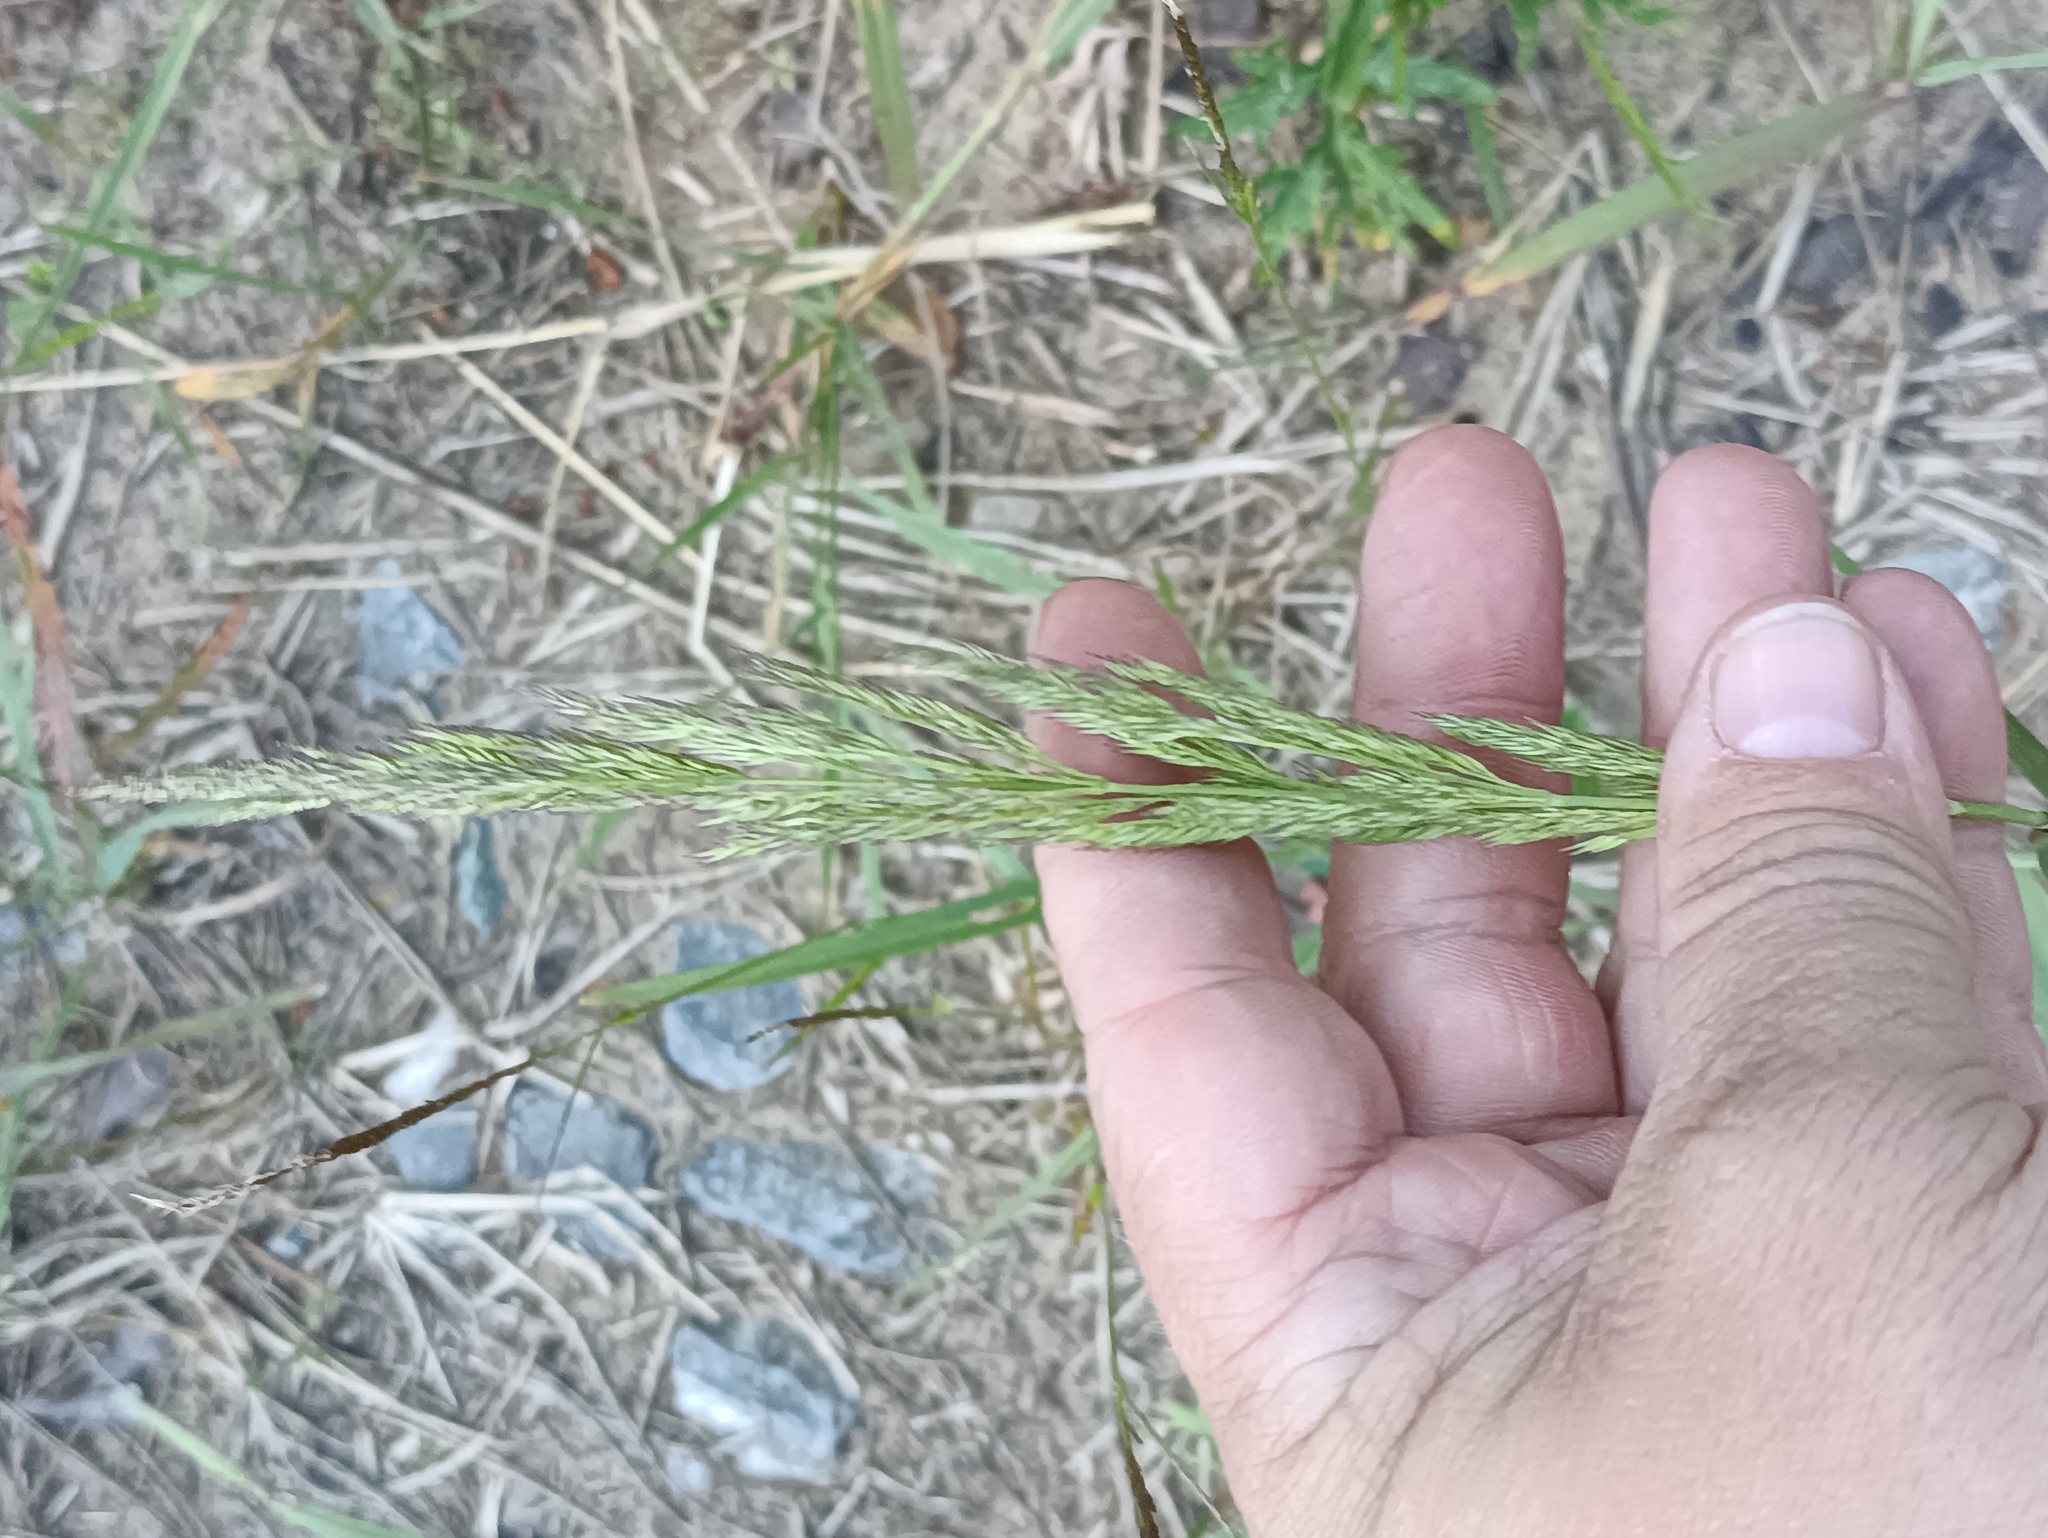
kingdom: Plantae
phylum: Tracheophyta
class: Liliopsida
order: Poales
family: Poaceae
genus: Calamagrostis
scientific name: Calamagrostis epigejos
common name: Wood small-reed
